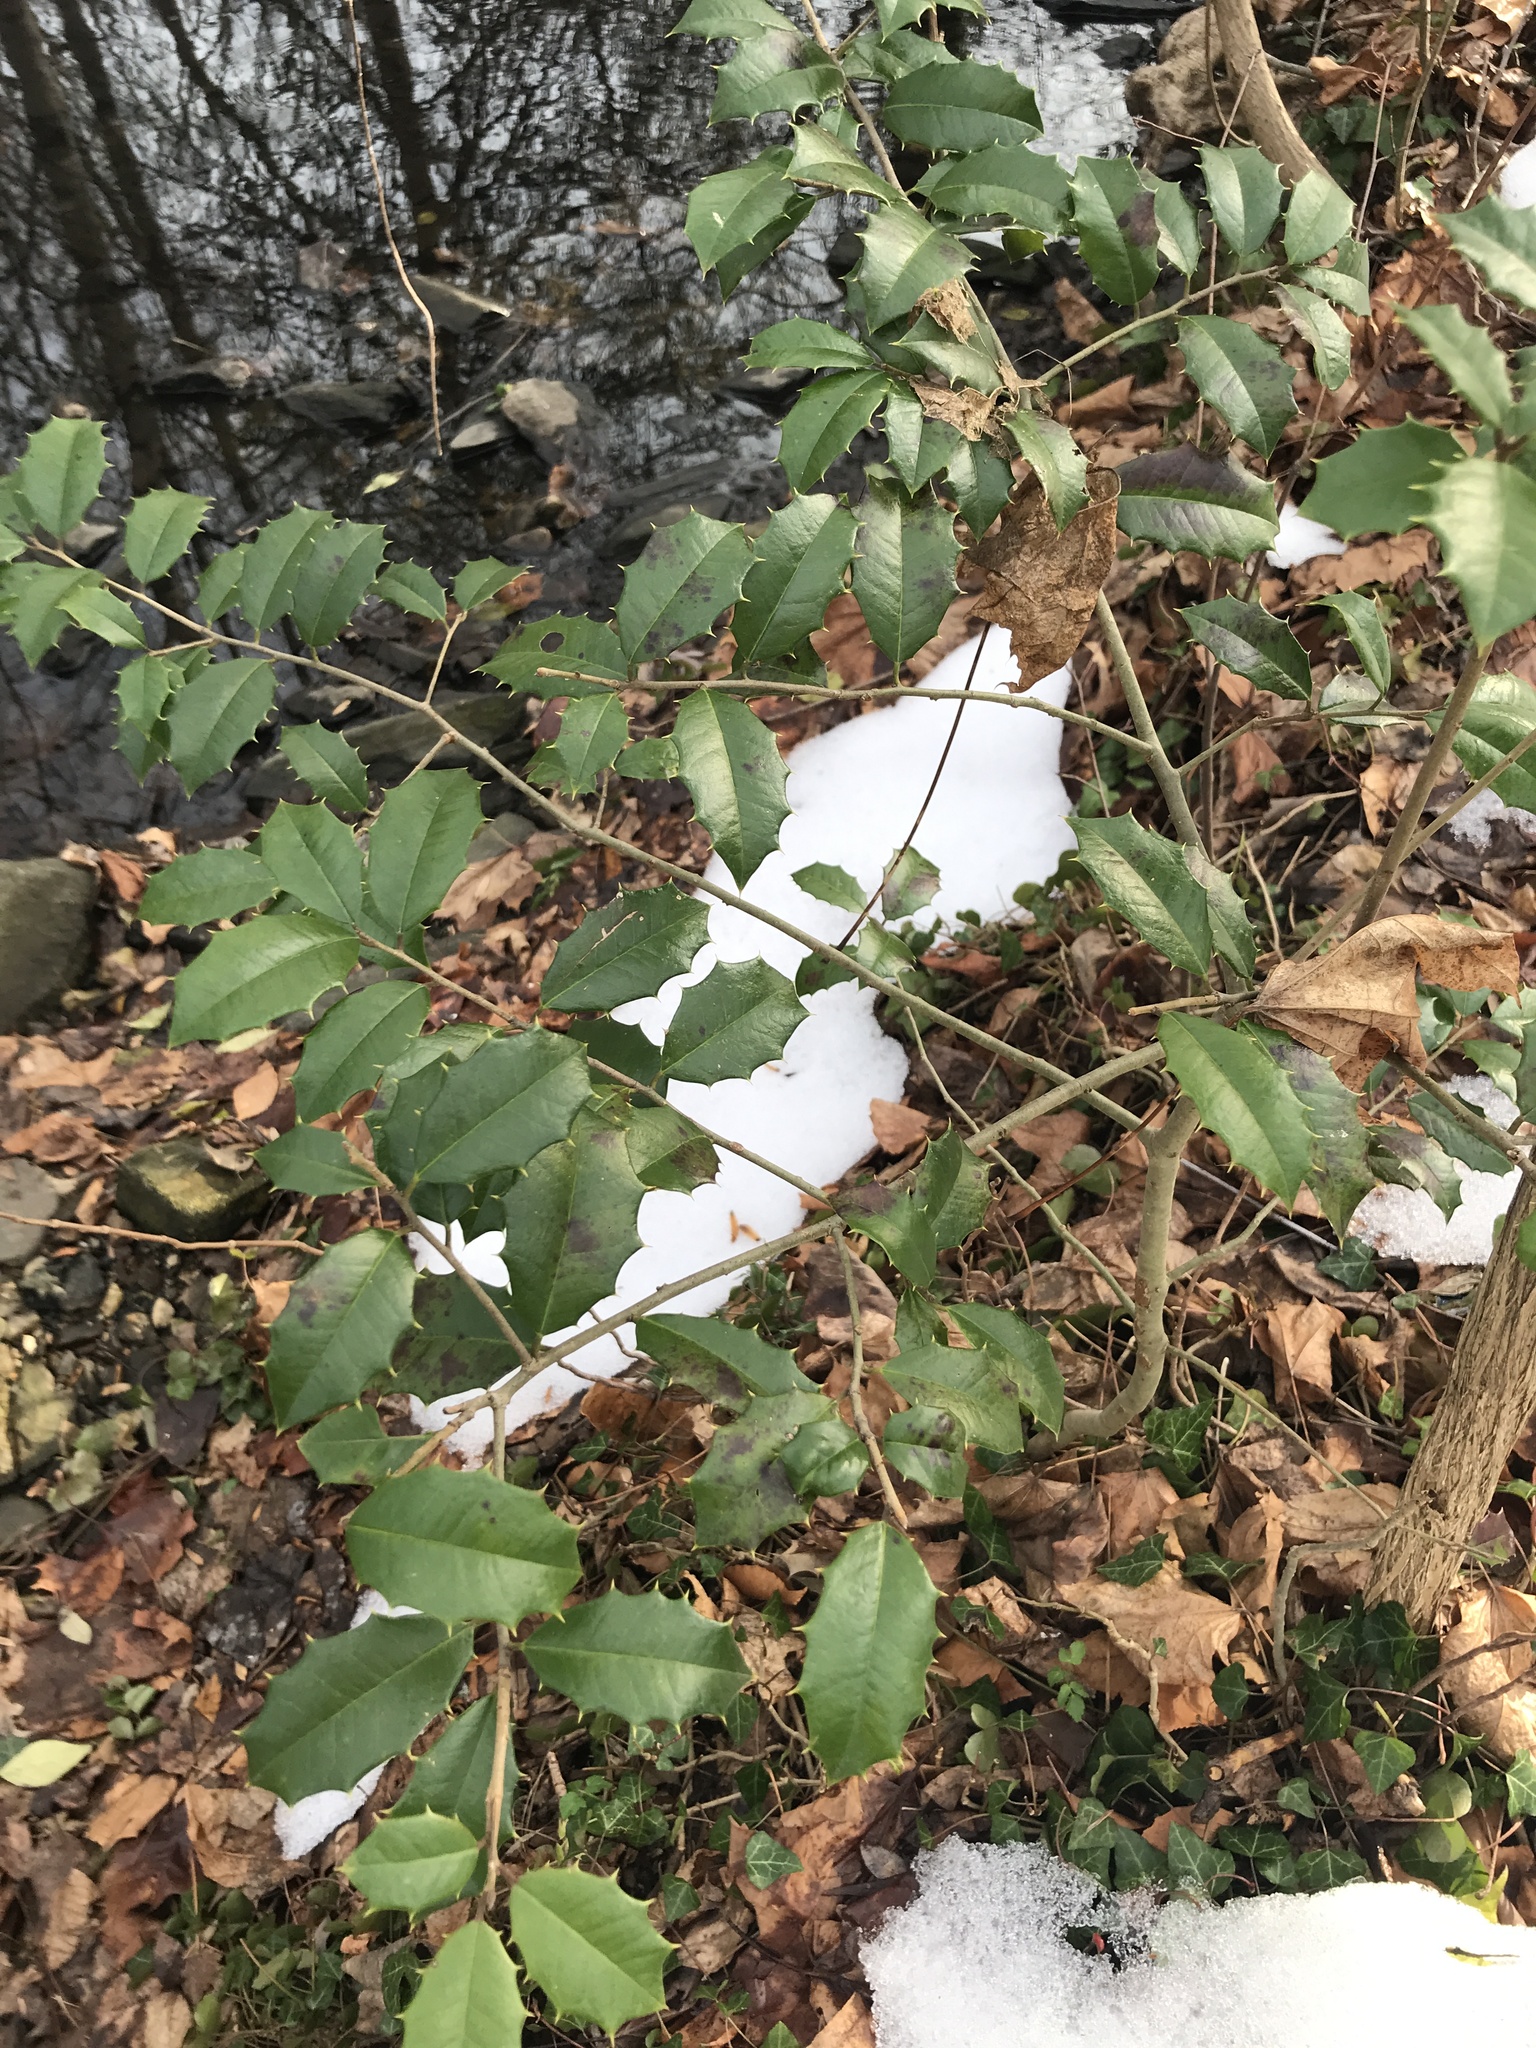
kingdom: Plantae
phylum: Tracheophyta
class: Magnoliopsida
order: Aquifoliales
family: Aquifoliaceae
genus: Ilex
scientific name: Ilex opaca
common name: American holly
